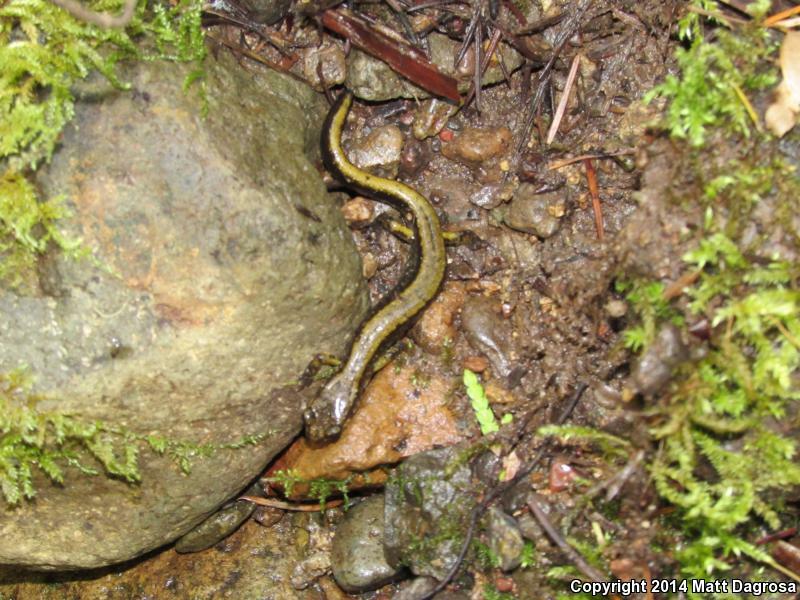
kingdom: Animalia
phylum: Chordata
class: Amphibia
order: Caudata
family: Plethodontidae
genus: Plethodon
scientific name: Plethodon dunni
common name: Dunn's salamander
